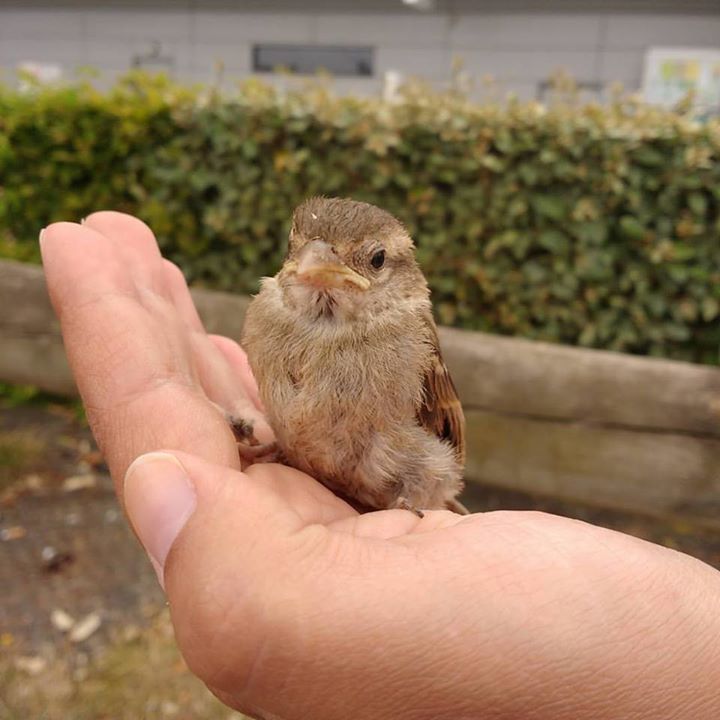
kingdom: Animalia
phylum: Chordata
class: Aves
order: Passeriformes
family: Passeridae
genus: Passer
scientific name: Passer domesticus
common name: House sparrow
